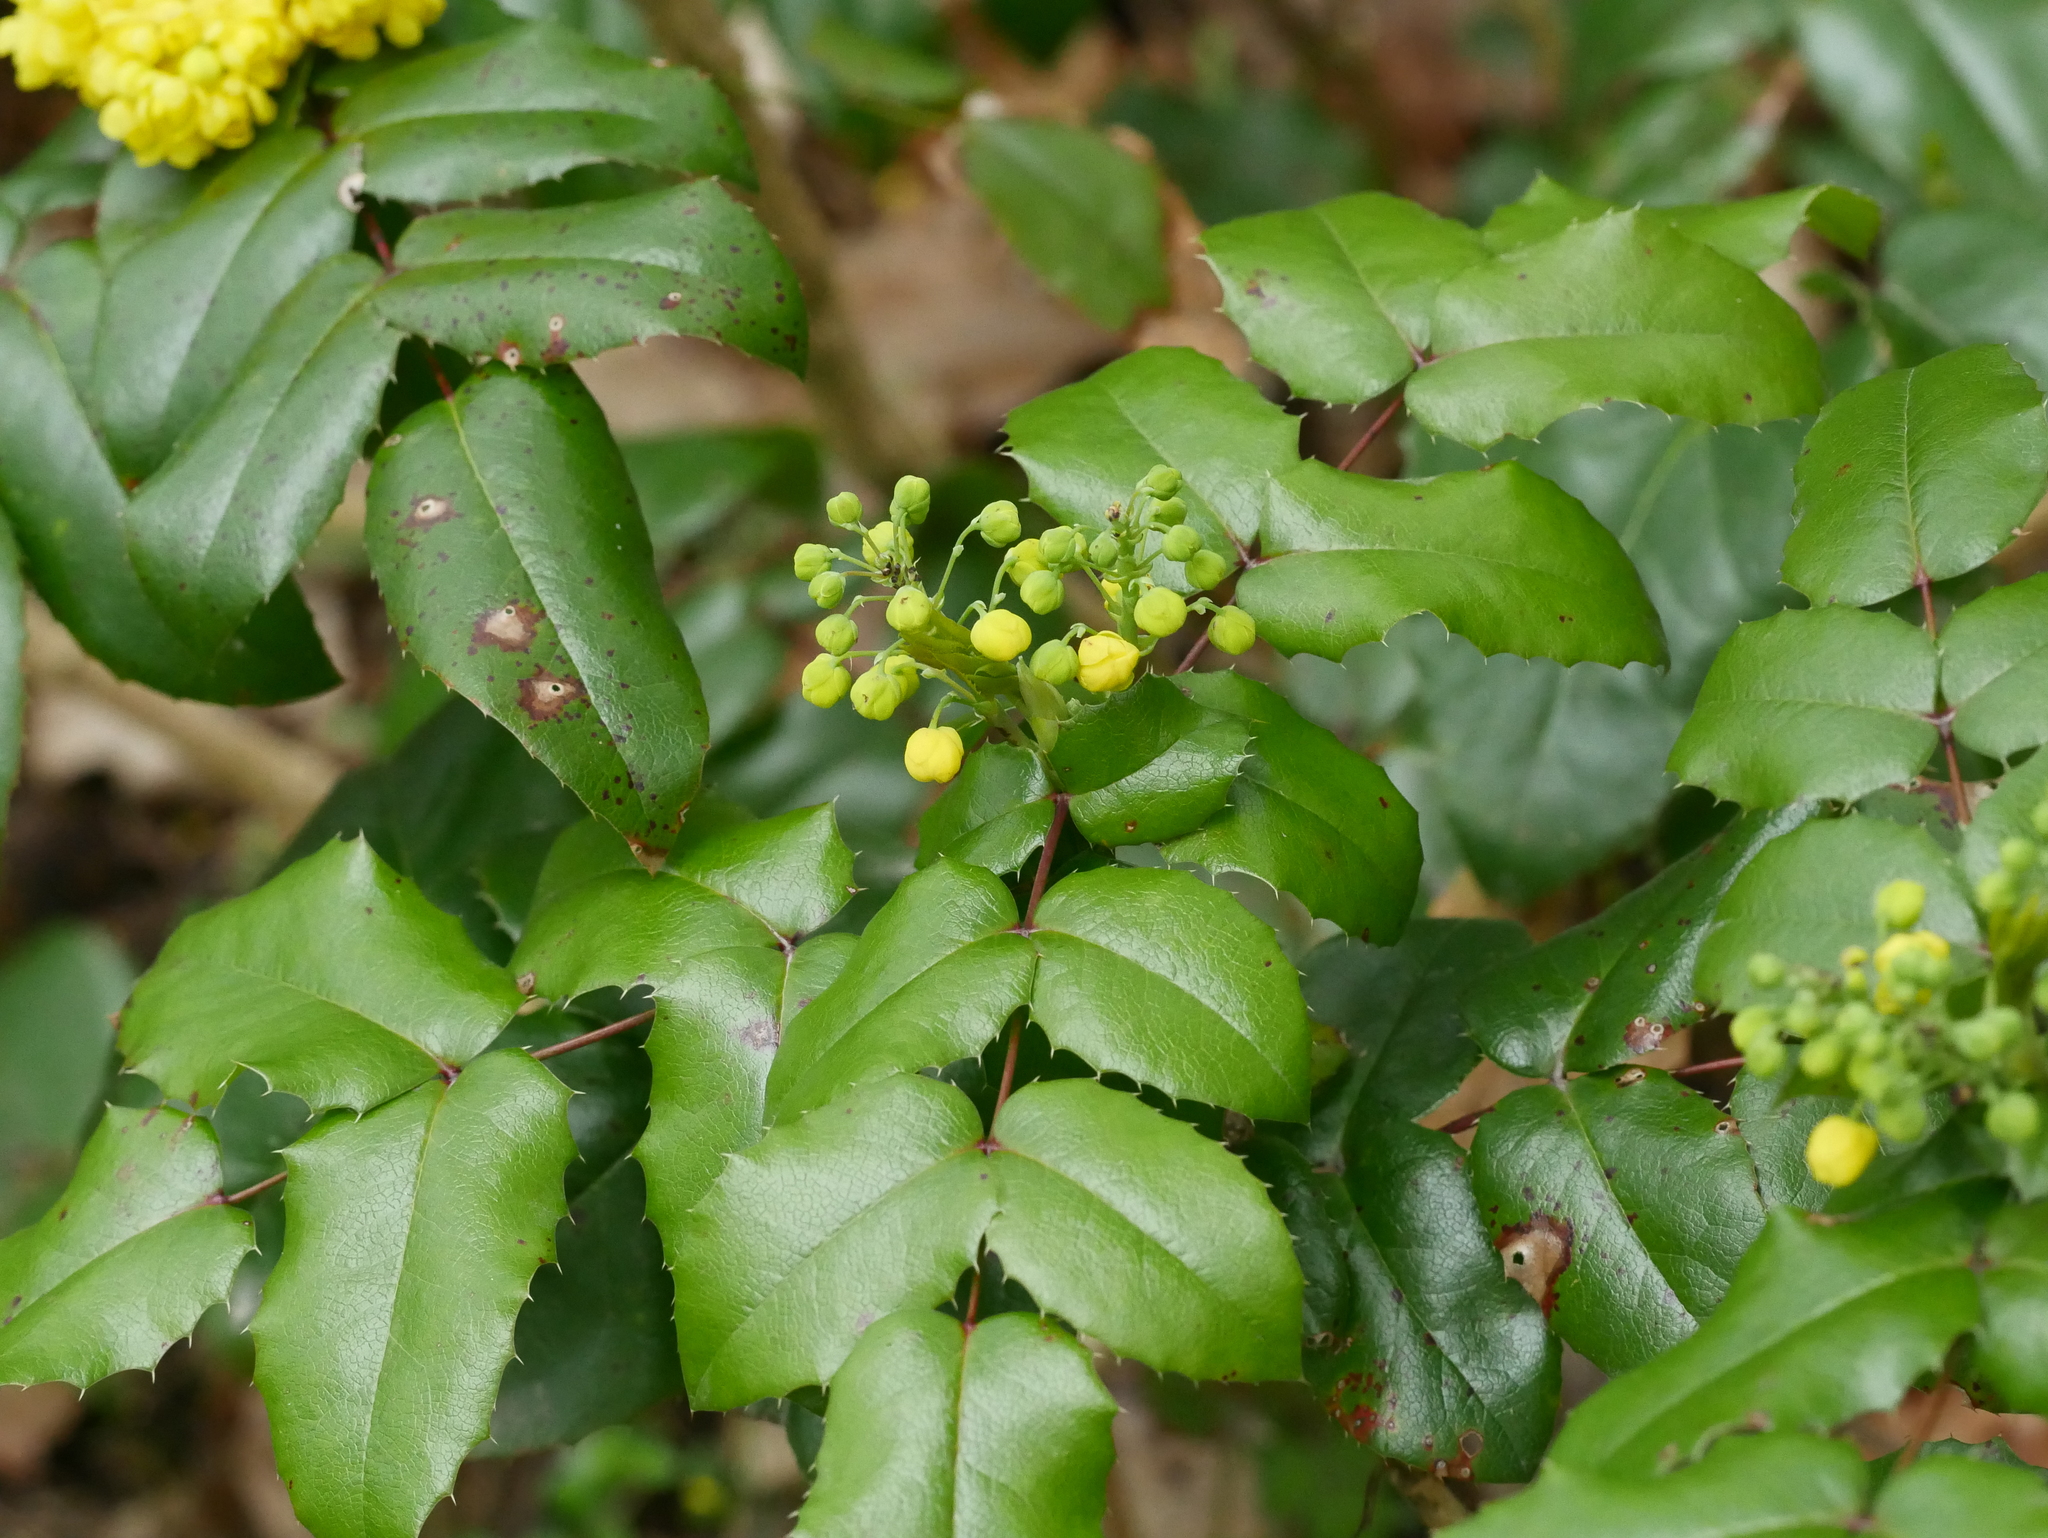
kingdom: Plantae
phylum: Tracheophyta
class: Magnoliopsida
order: Ranunculales
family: Berberidaceae
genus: Mahonia
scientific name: Mahonia aquifolium
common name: Oregon-grape
